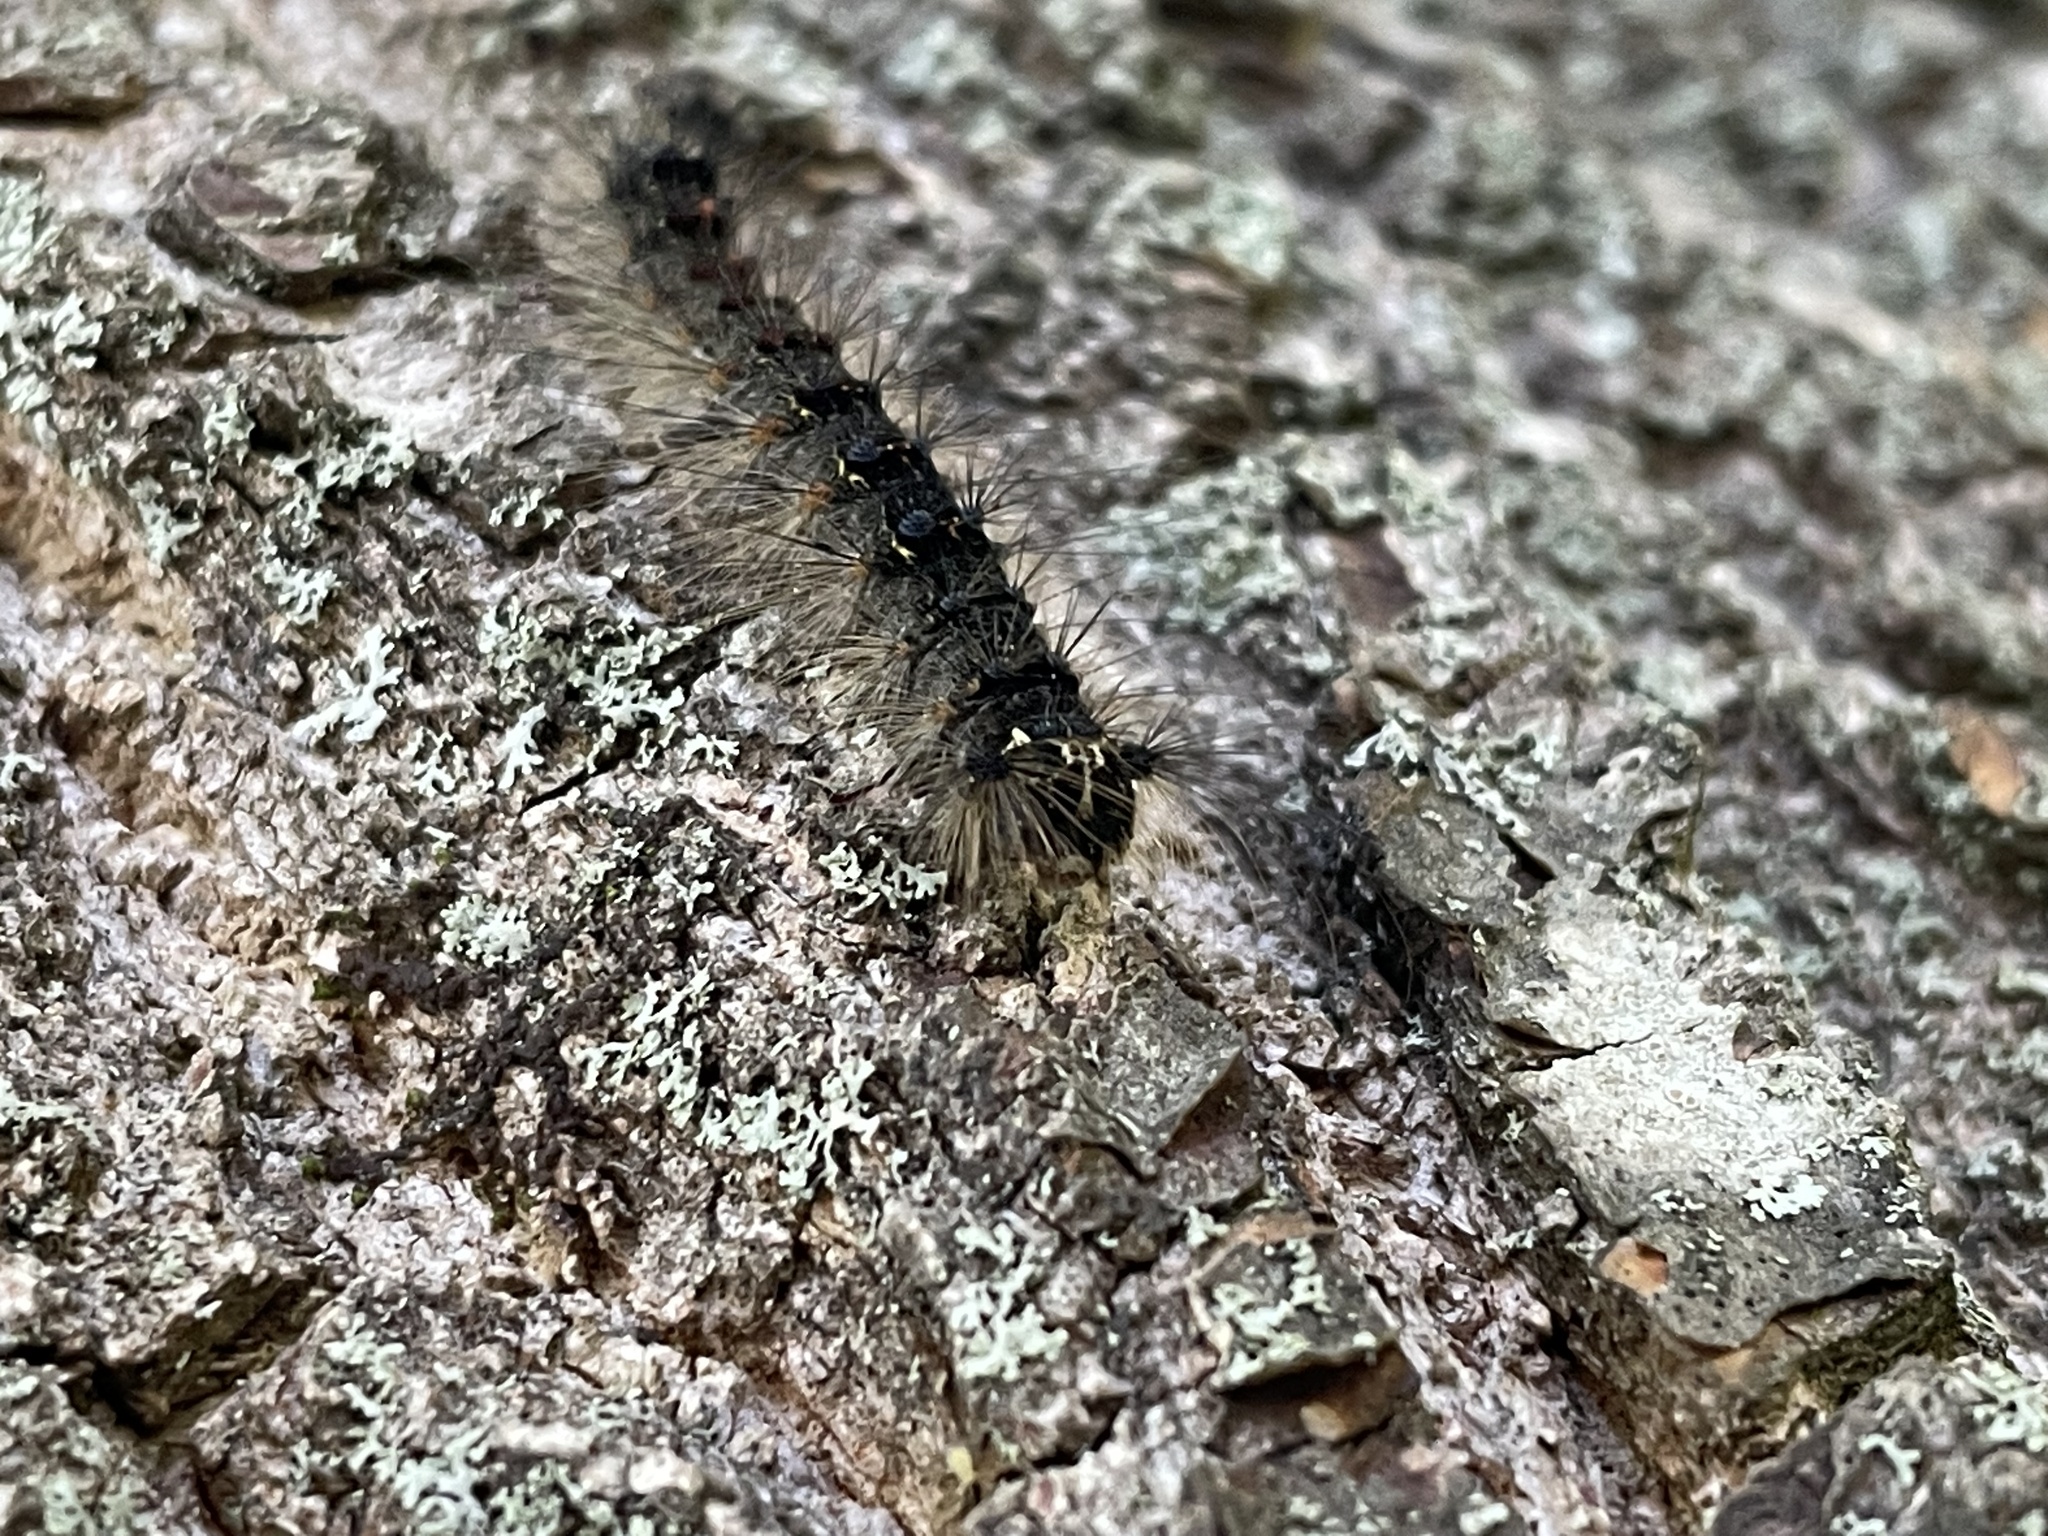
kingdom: Animalia
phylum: Arthropoda
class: Insecta
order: Lepidoptera
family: Erebidae
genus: Lymantria
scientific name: Lymantria dispar
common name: Gypsy moth
